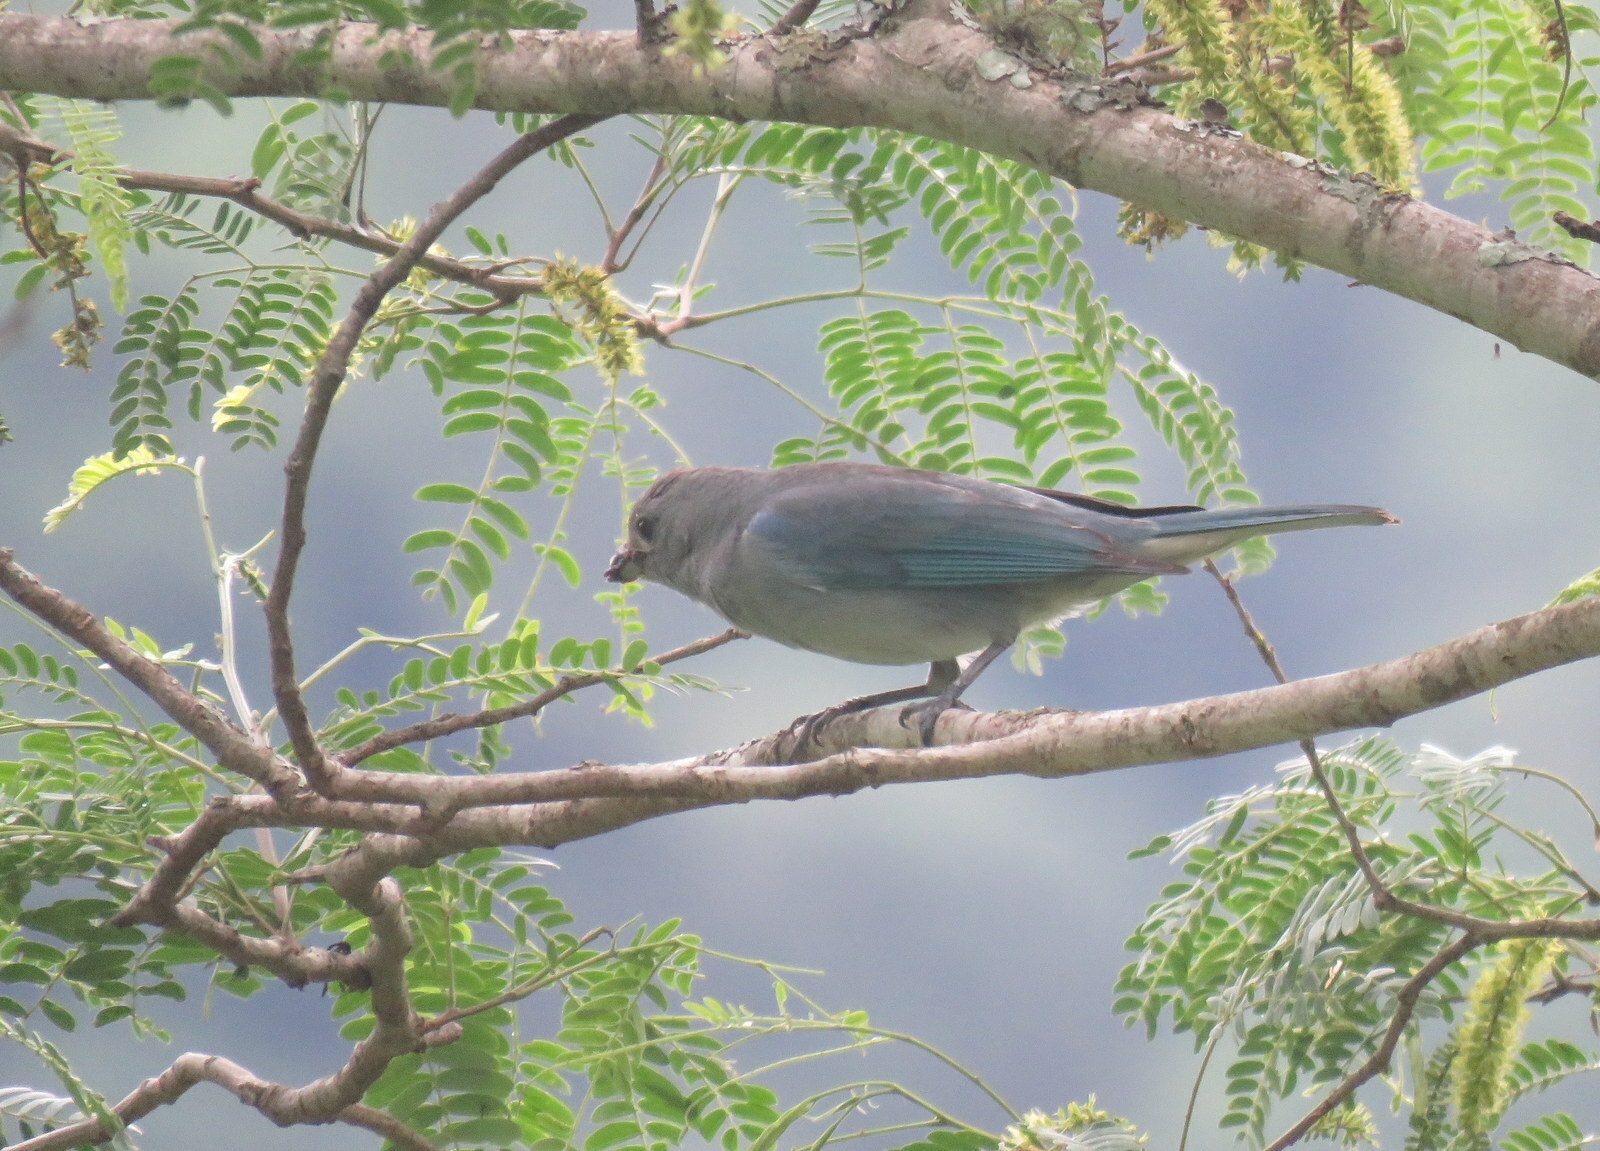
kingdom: Animalia
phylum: Chordata
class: Aves
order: Passeriformes
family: Thraupidae
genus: Thraupis
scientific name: Thraupis sayaca
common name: Sayaca tanager
